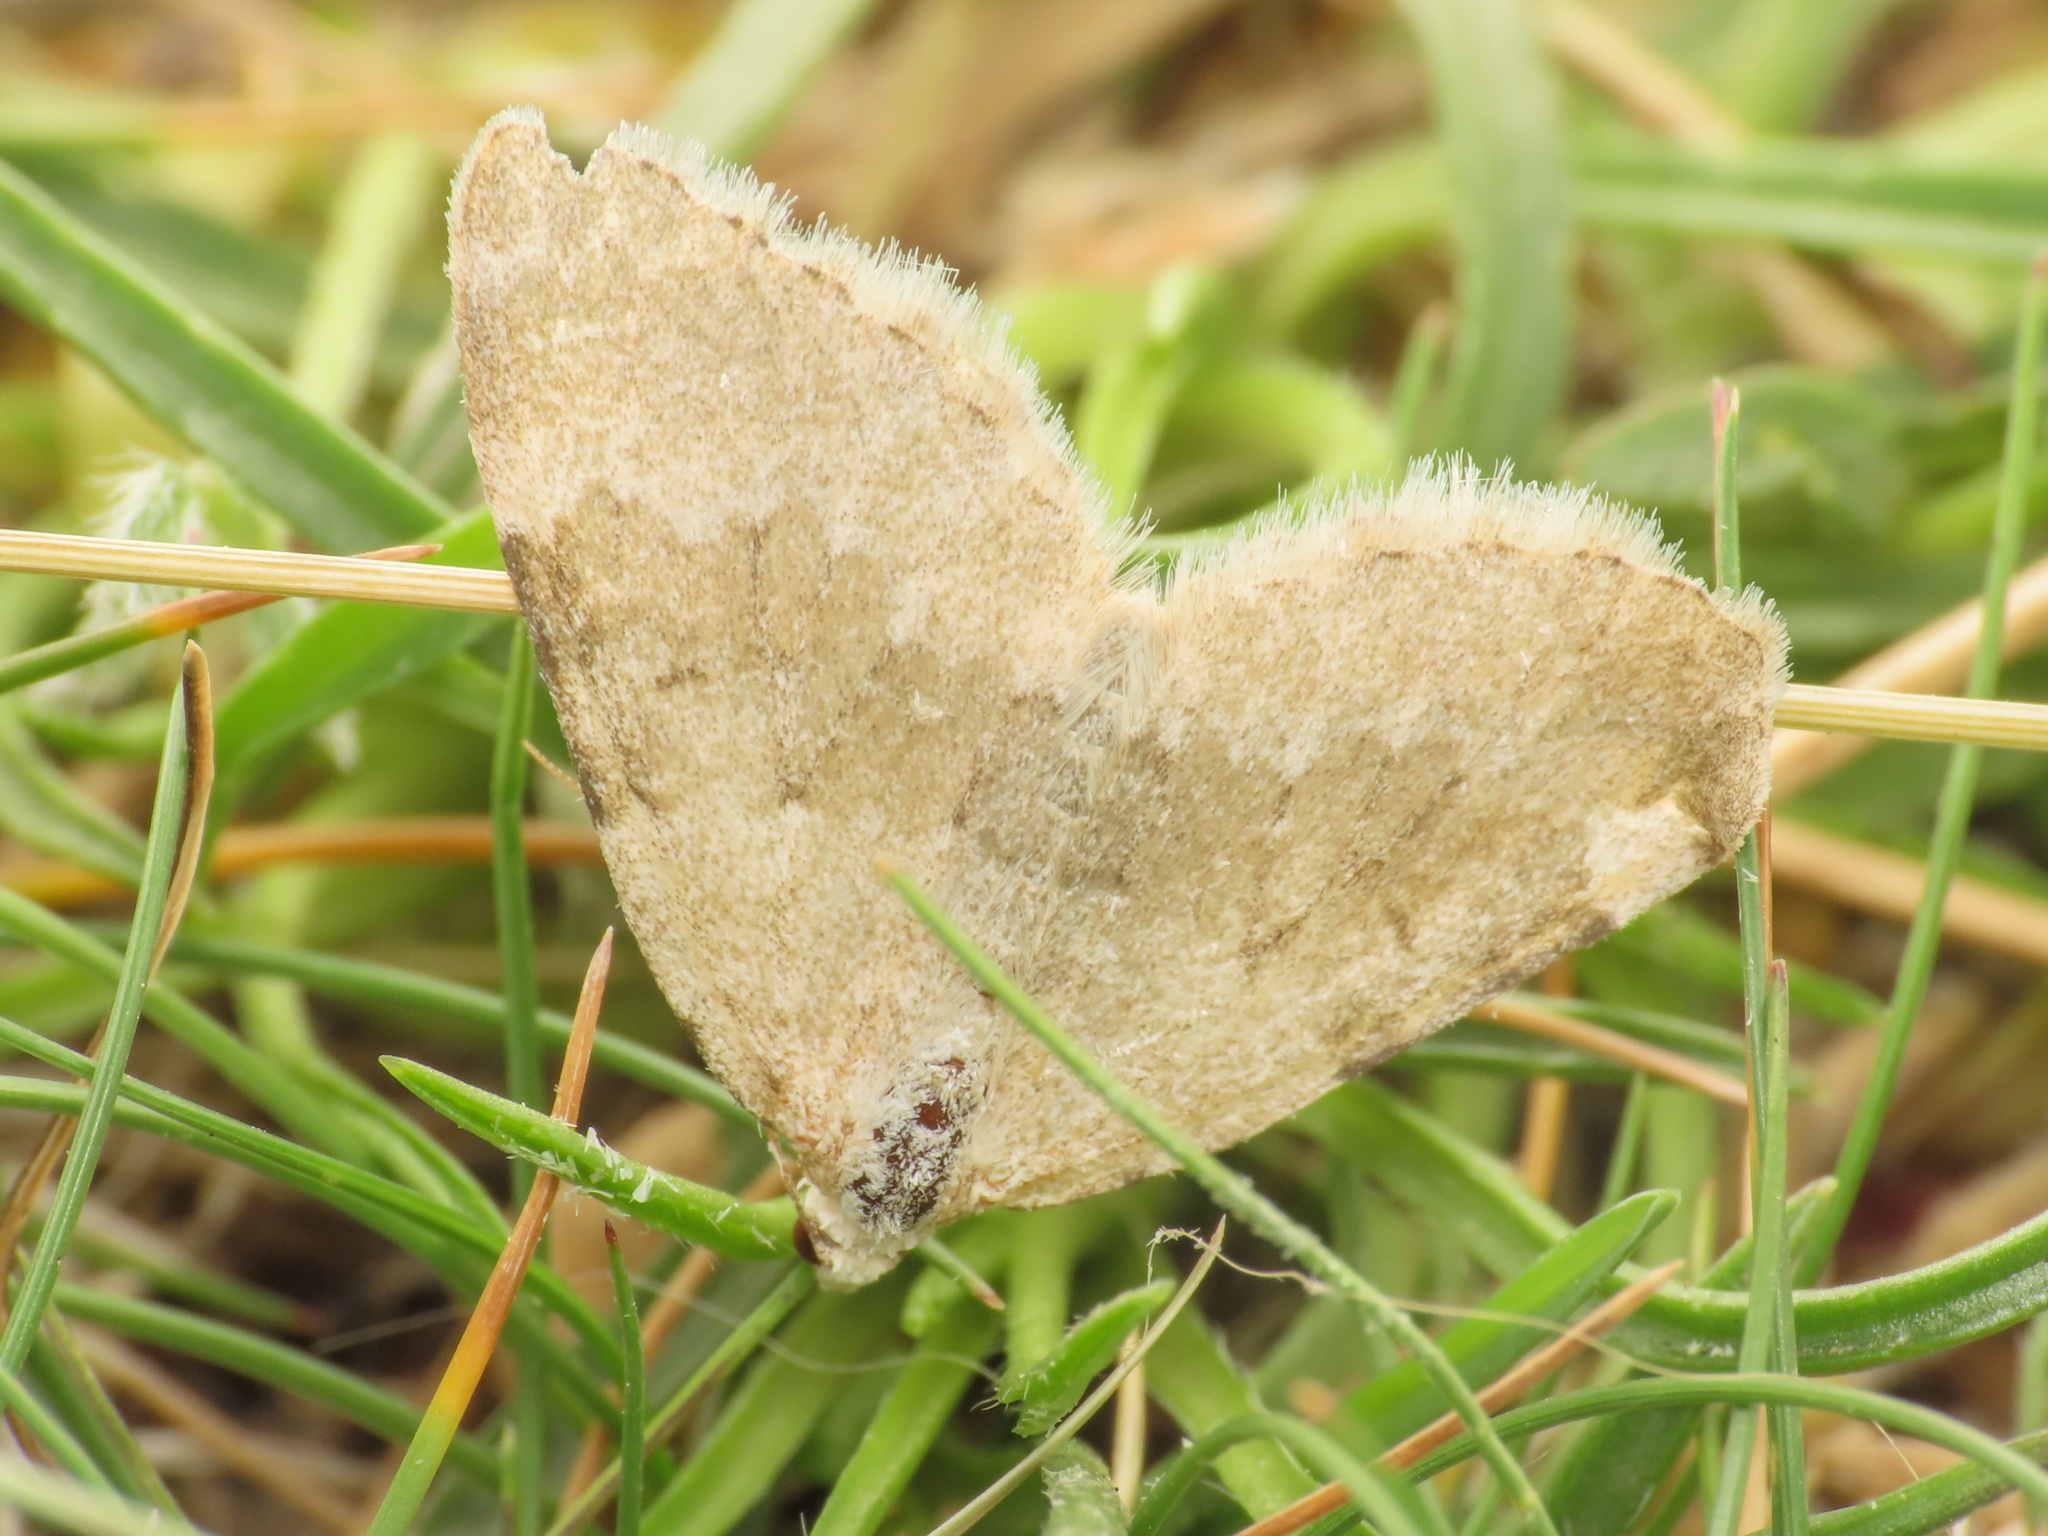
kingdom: Animalia
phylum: Arthropoda
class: Insecta
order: Lepidoptera
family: Geometridae
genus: Colostygia
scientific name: Colostygia aqueata
